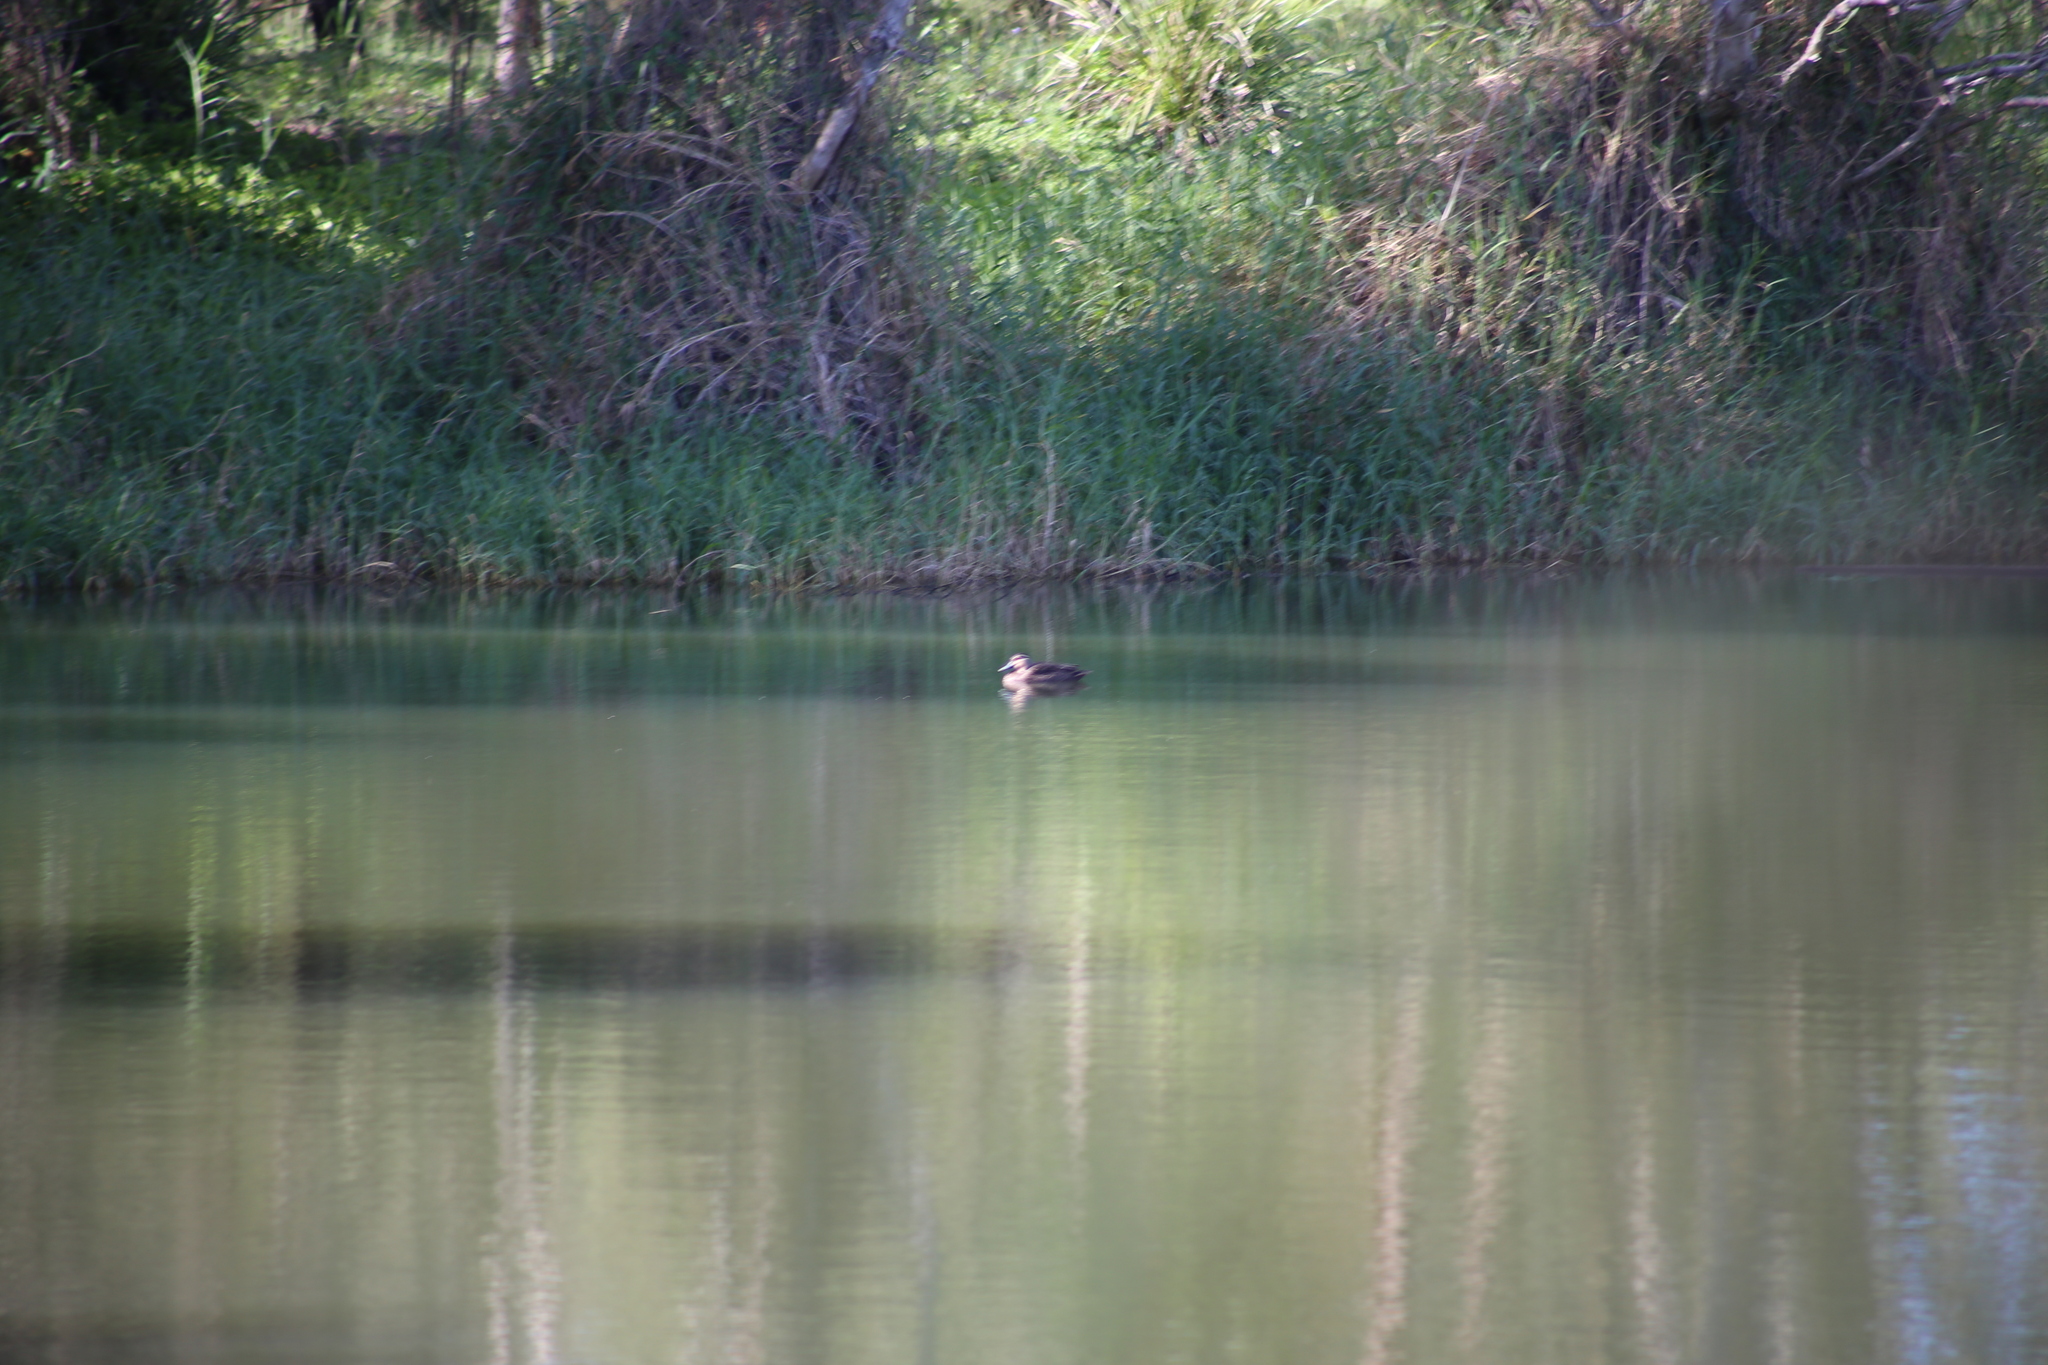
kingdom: Animalia
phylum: Chordata
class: Aves
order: Anseriformes
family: Anatidae
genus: Anas
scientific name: Anas superciliosa
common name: Pacific black duck
